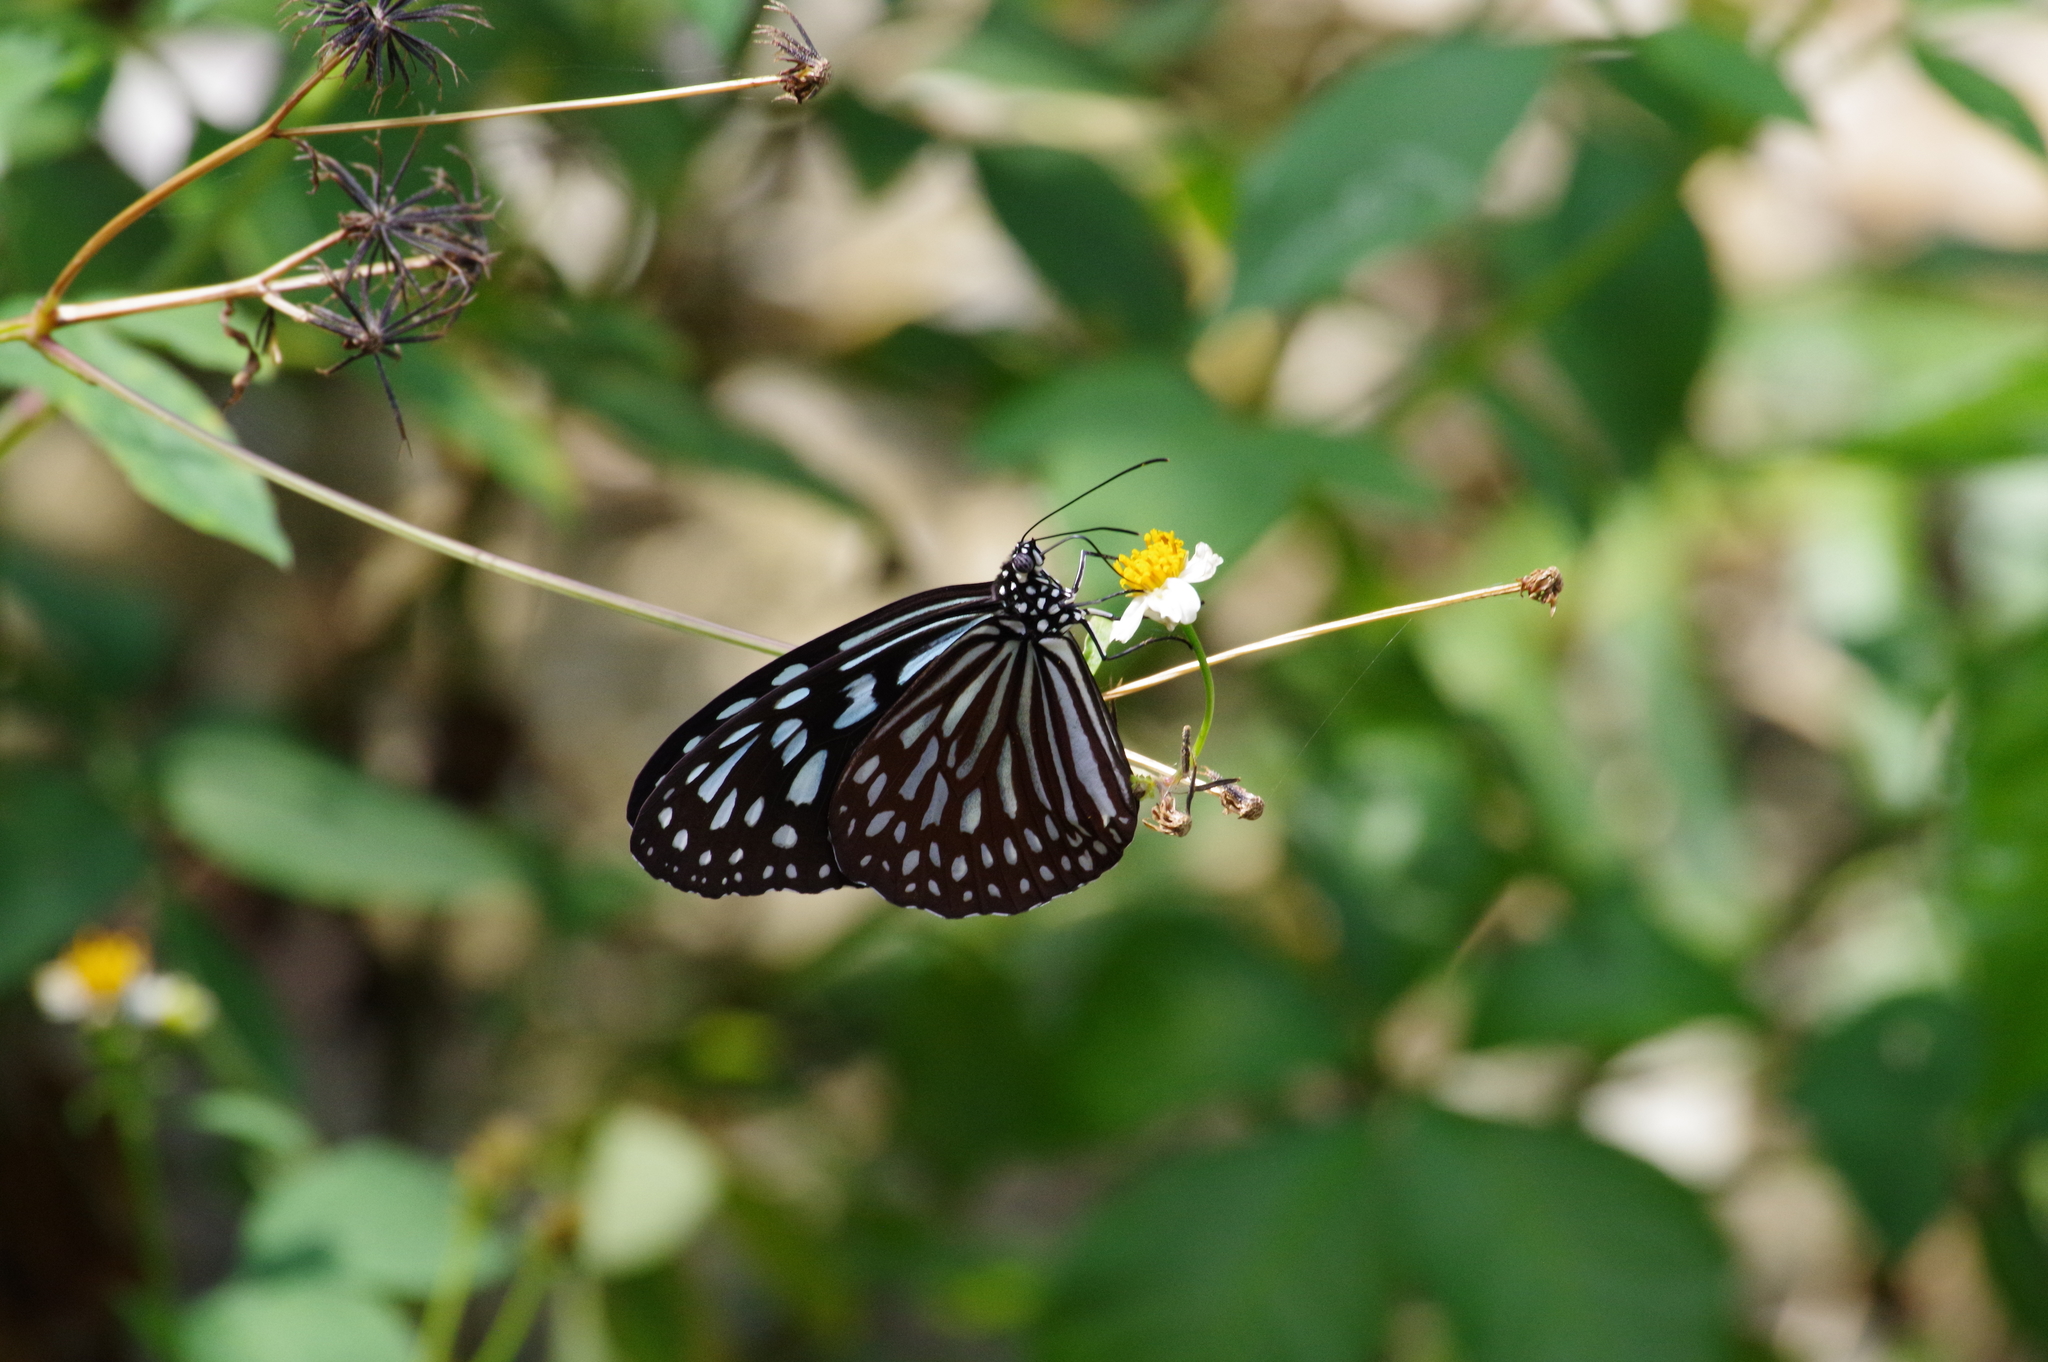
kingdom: Animalia
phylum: Arthropoda
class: Insecta
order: Lepidoptera
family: Nymphalidae
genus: Ideopsis
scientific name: Ideopsis similis
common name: Ceylon blue glassy tiger
